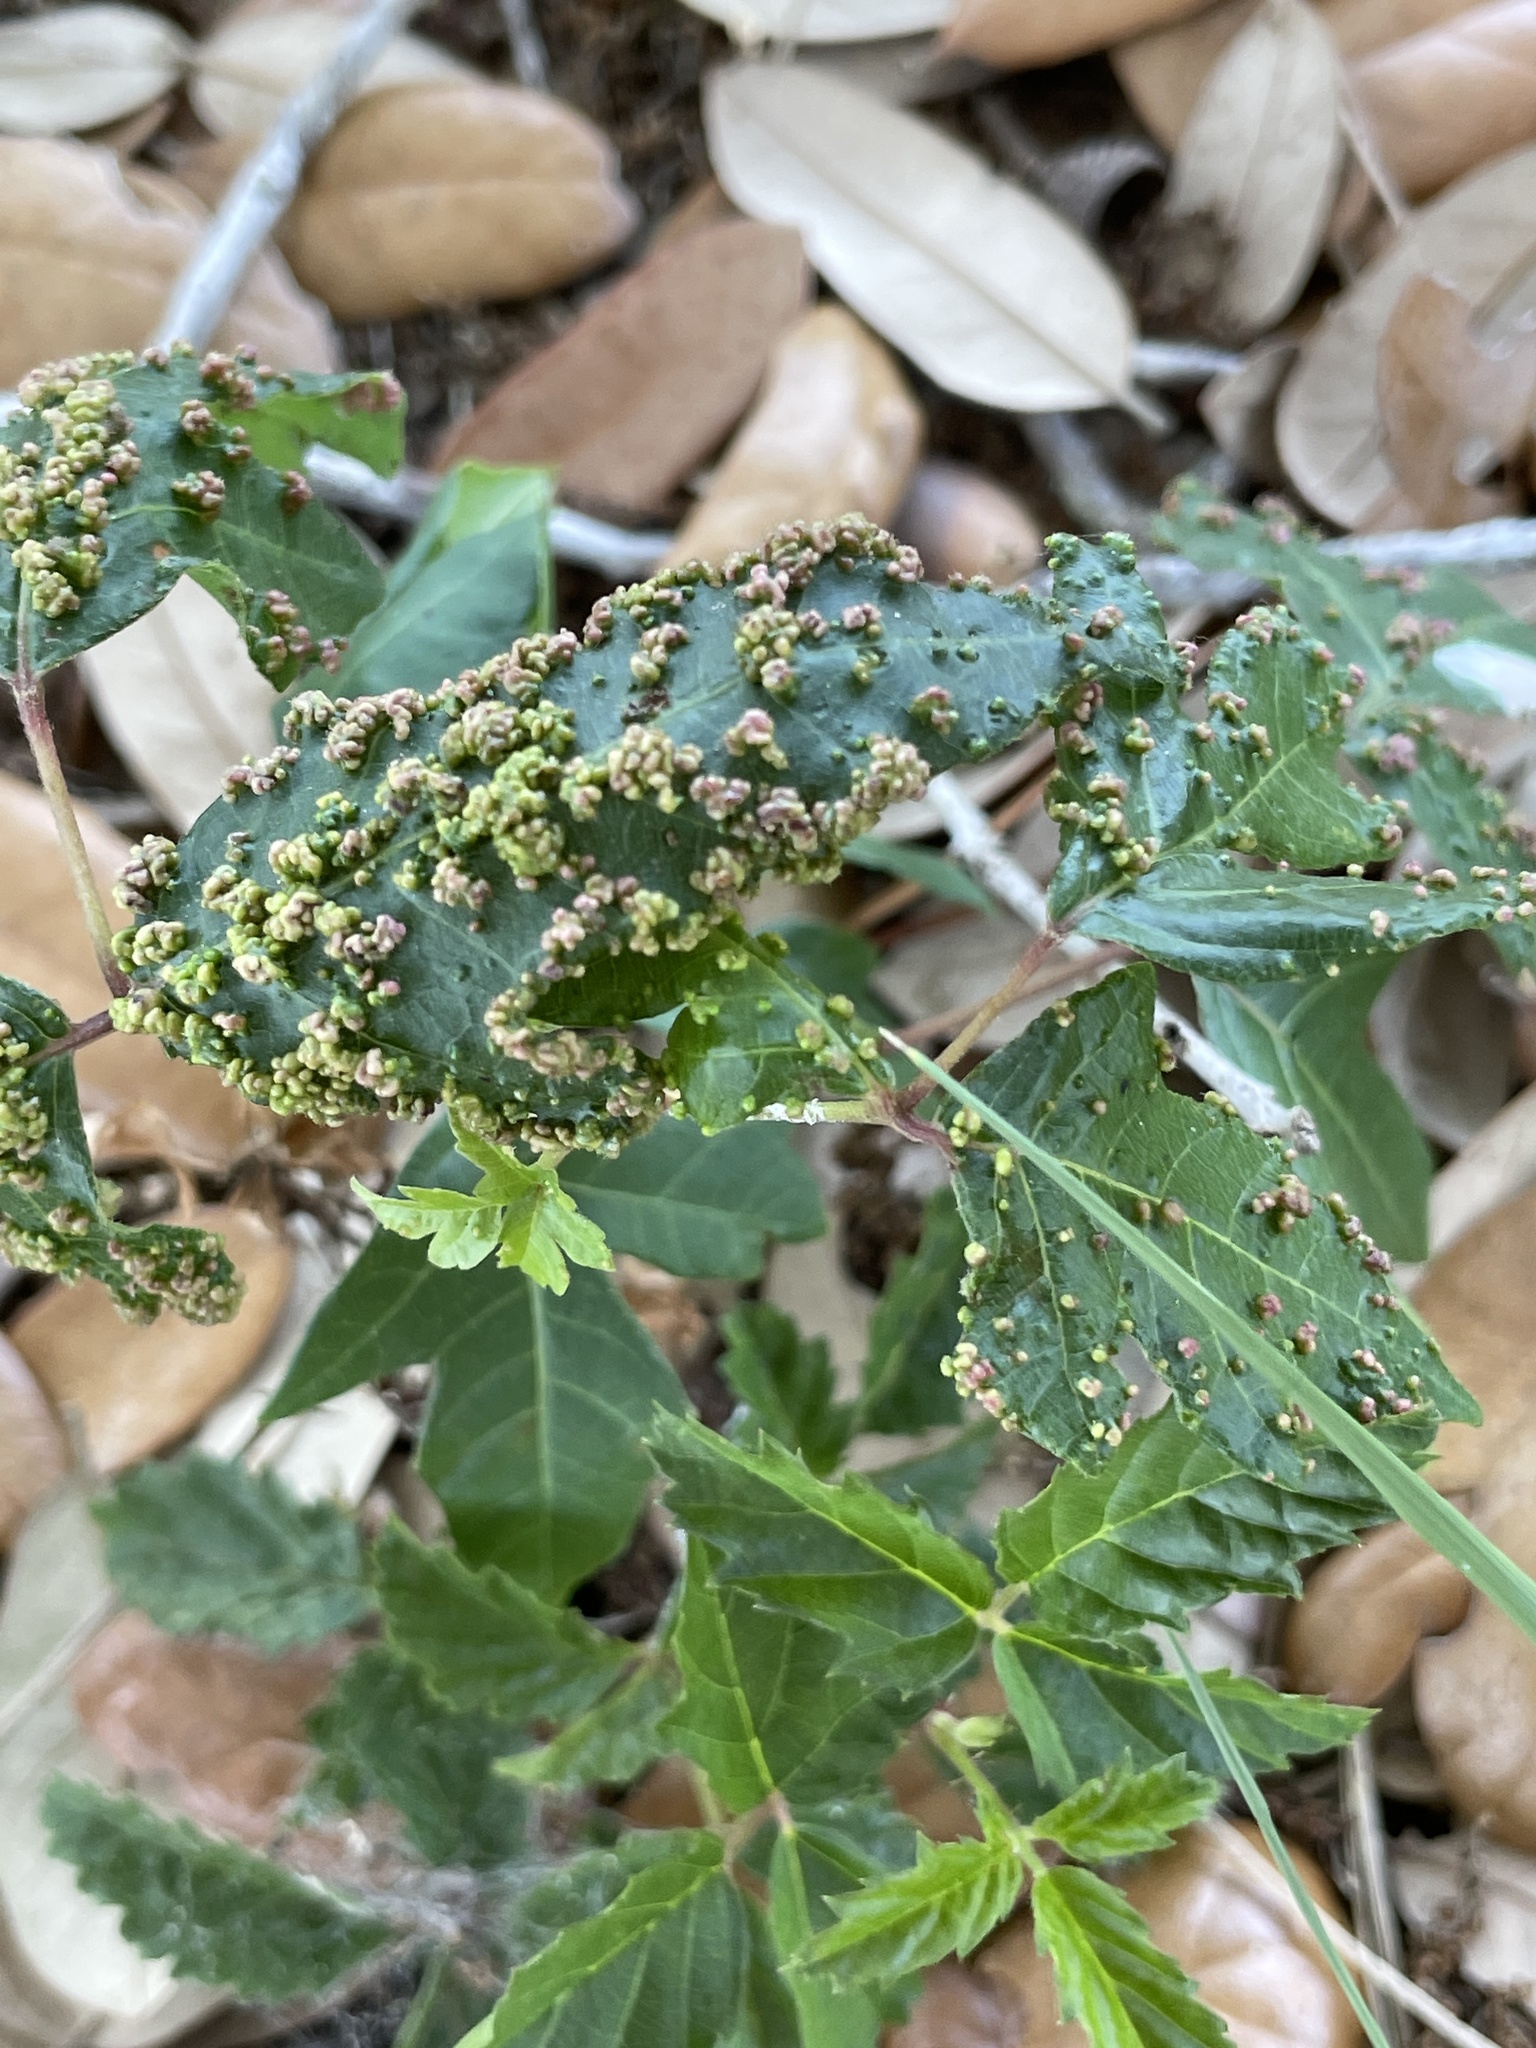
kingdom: Animalia
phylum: Arthropoda
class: Arachnida
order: Trombidiformes
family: Eriophyidae
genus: Aculops
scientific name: Aculops
